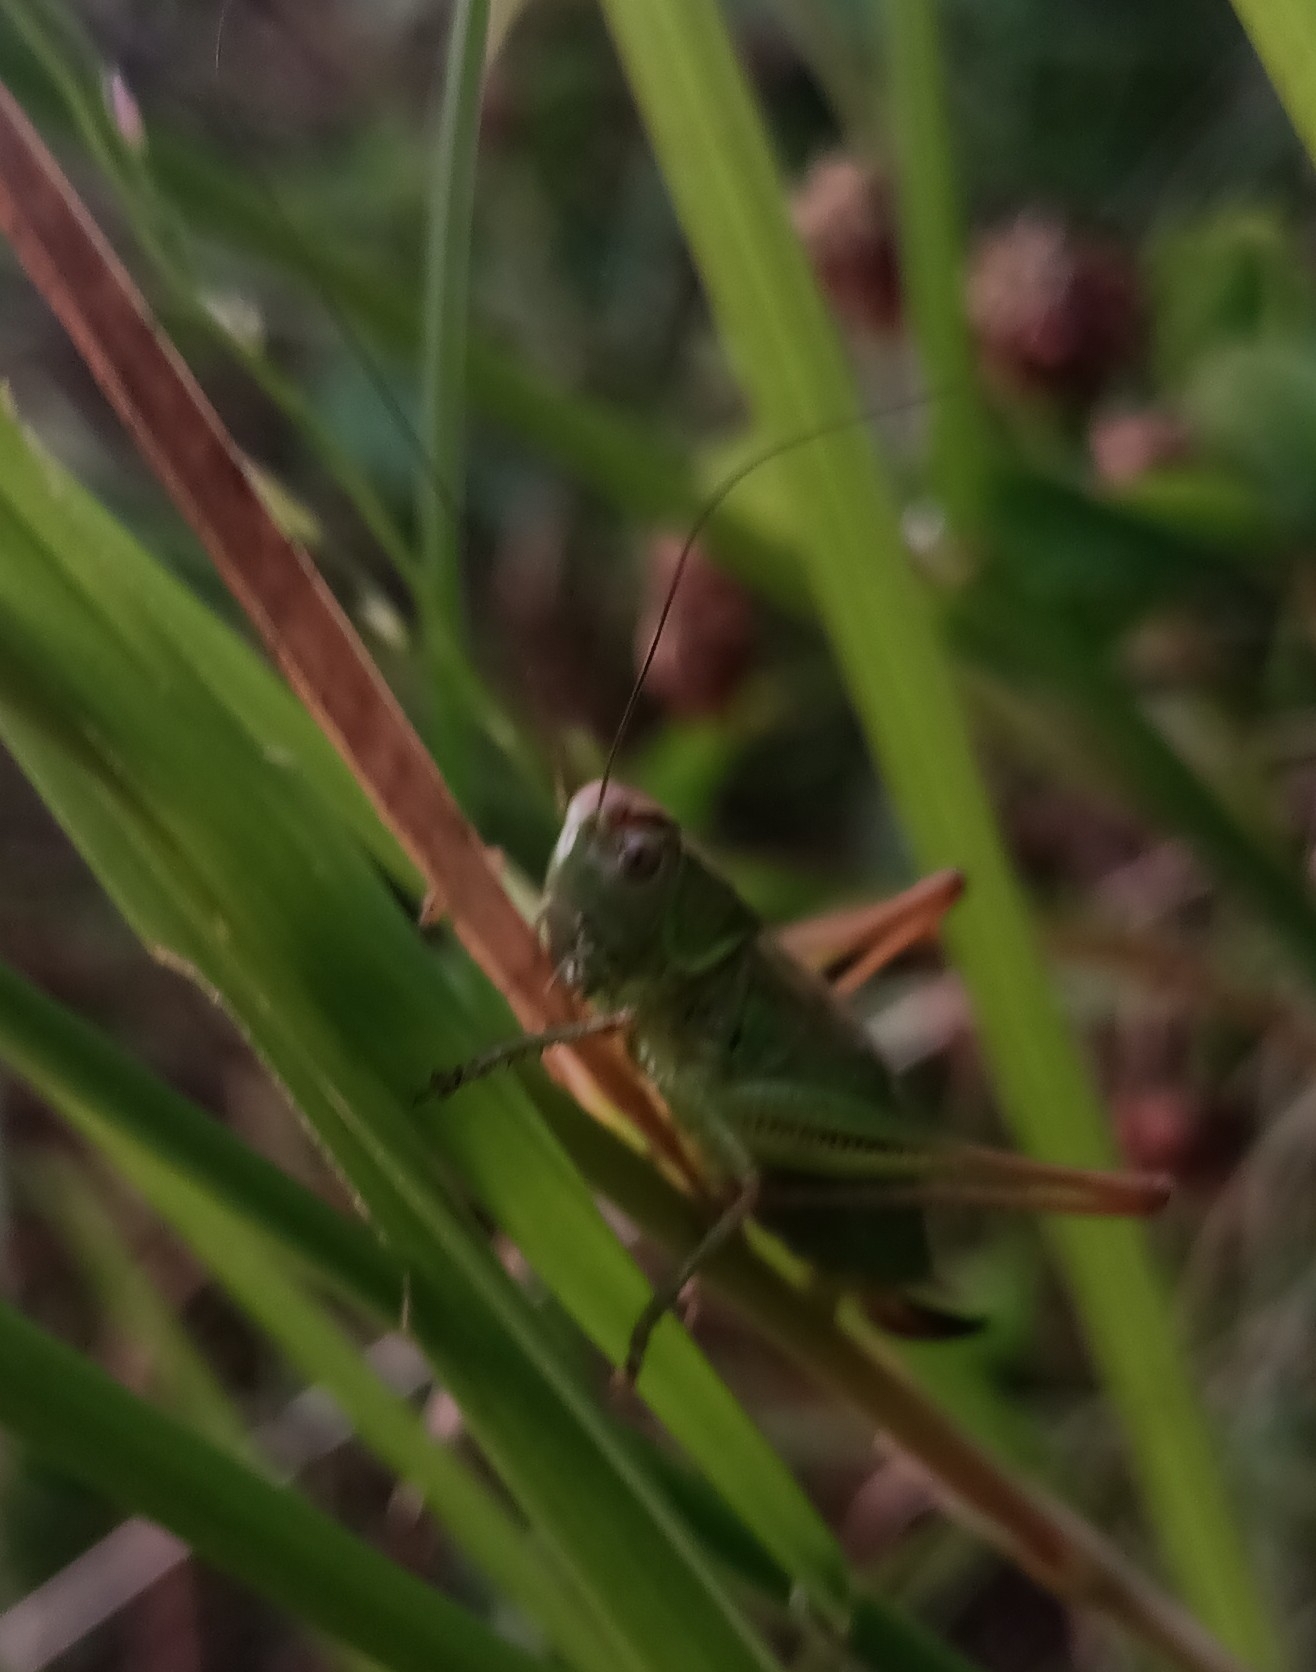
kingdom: Animalia
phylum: Arthropoda
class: Insecta
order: Orthoptera
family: Tettigoniidae
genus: Roeseliana
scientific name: Roeseliana roeselii
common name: Roesel's bush cricket
